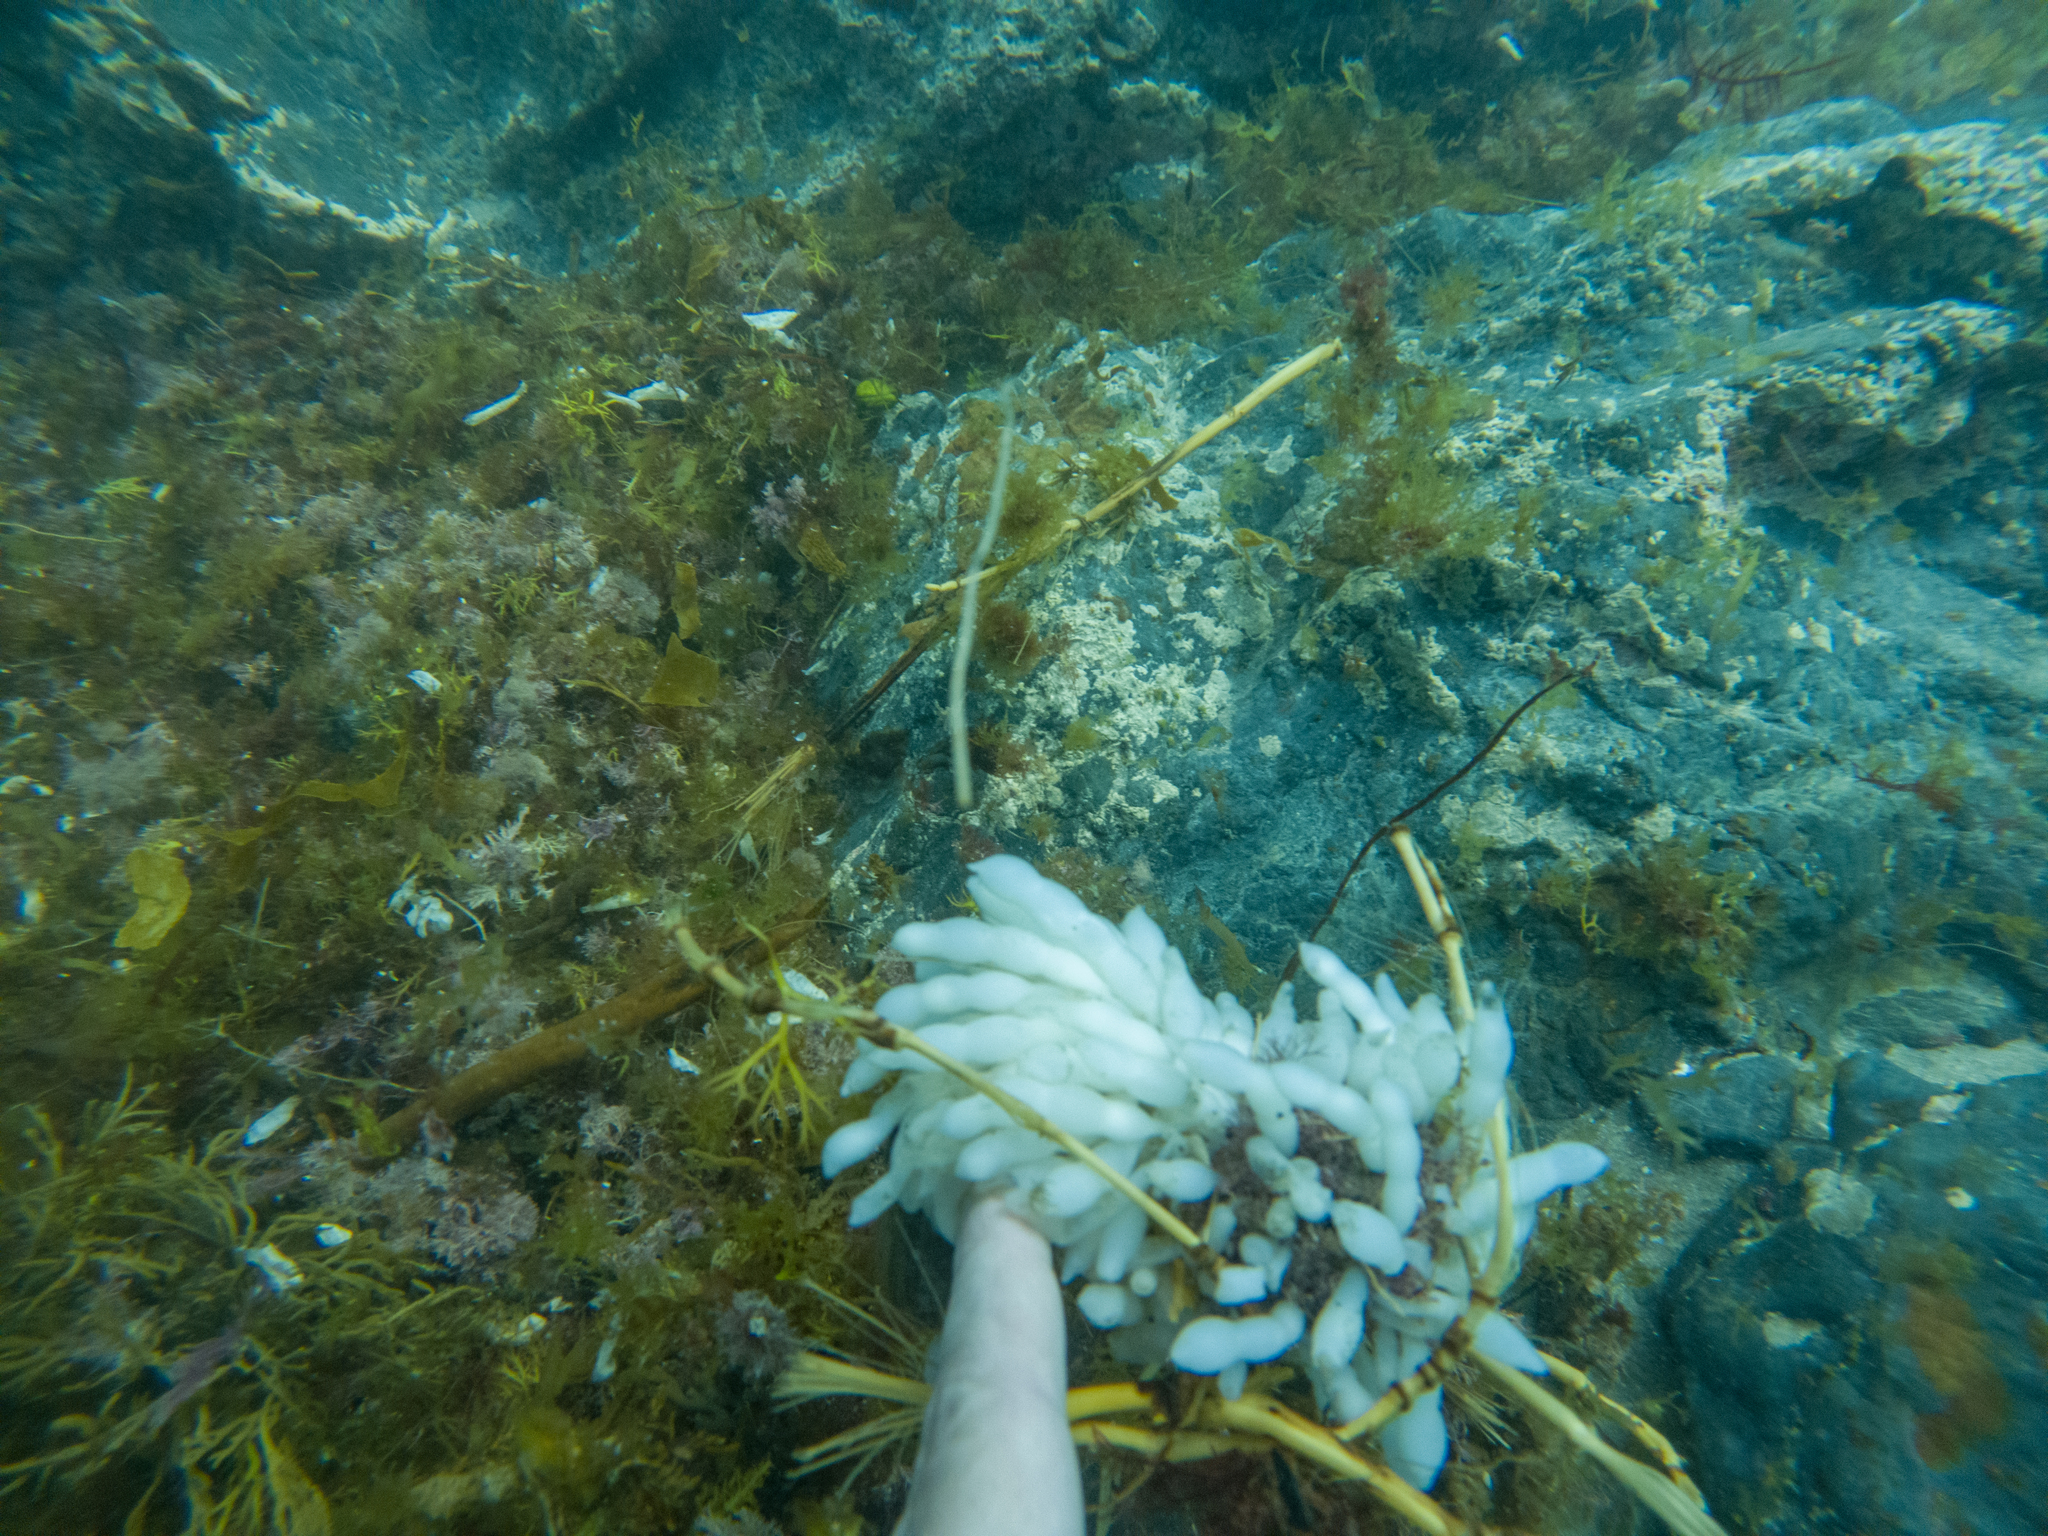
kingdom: Animalia
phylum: Mollusca
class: Cephalopoda
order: Myopsida
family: Loliginidae
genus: Sepioteuthis
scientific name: Sepioteuthis australis
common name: Southern reef squid
